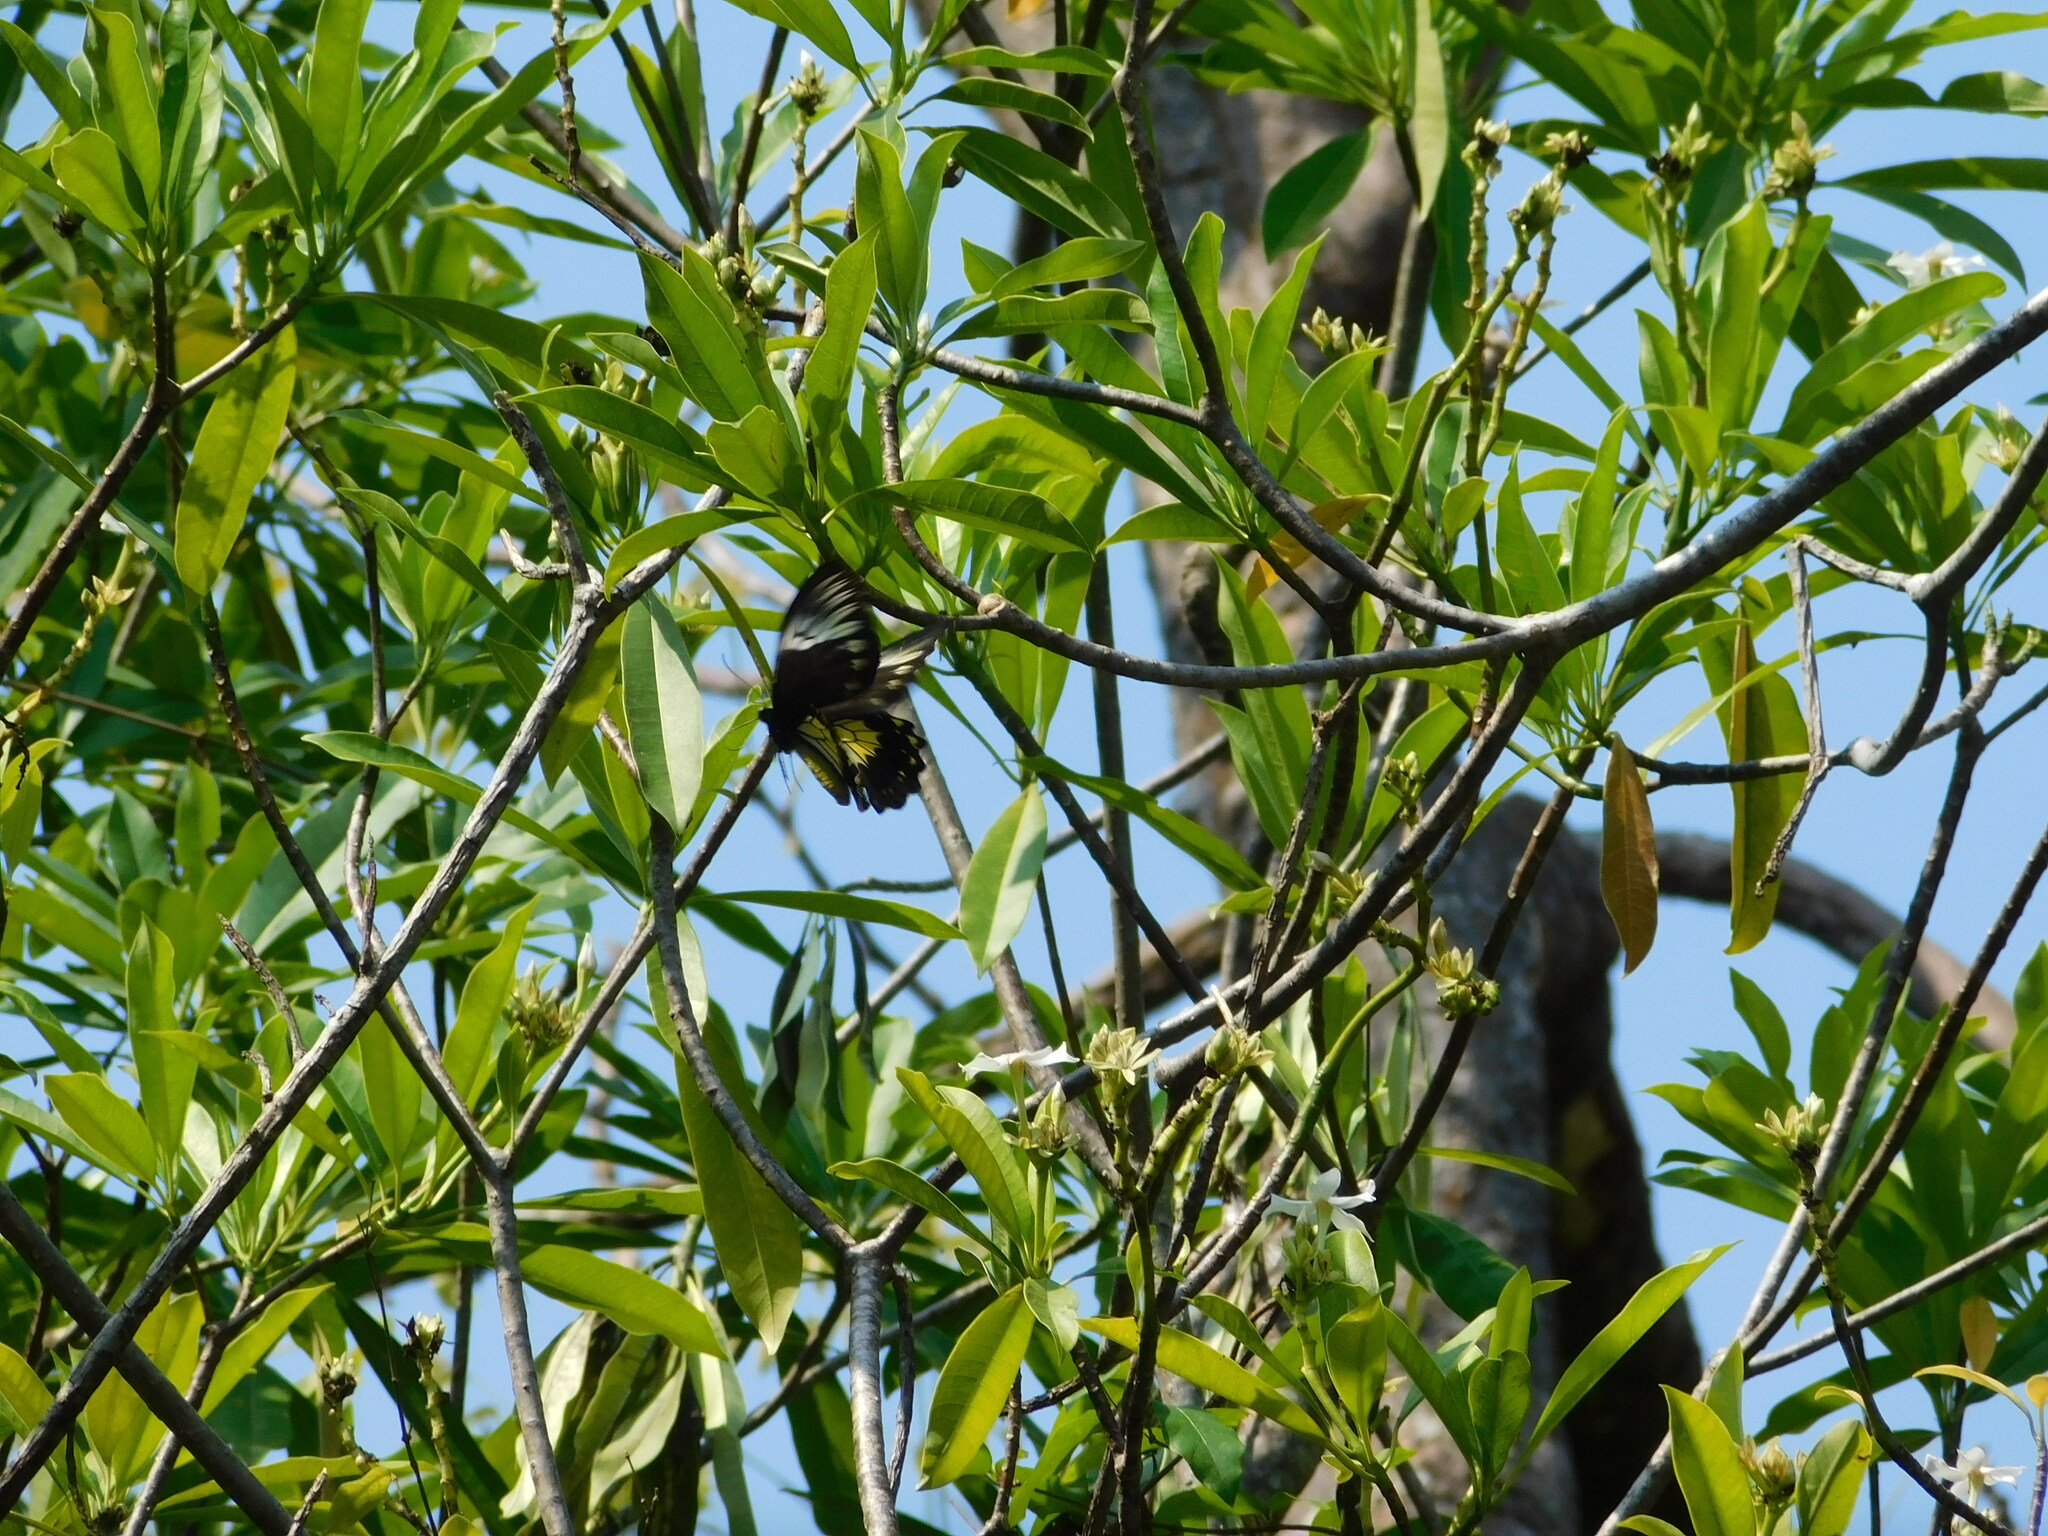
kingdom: Animalia
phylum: Arthropoda
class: Insecta
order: Lepidoptera
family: Papilionidae
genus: Troides
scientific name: Troides amphrysus
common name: Malay birdwing
